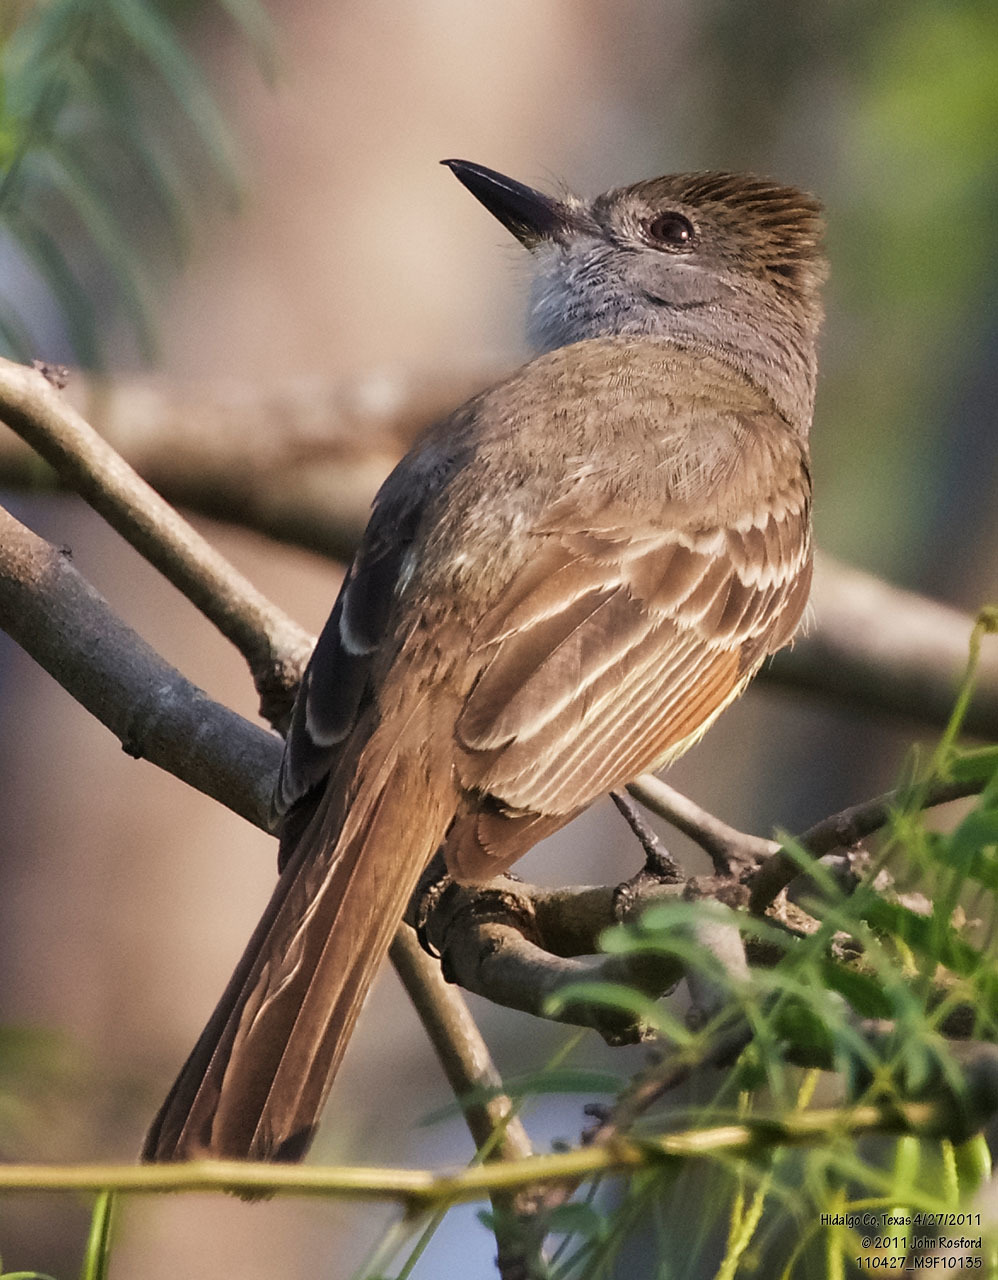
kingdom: Animalia
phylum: Chordata
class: Aves
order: Passeriformes
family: Tyrannidae
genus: Myiarchus
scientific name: Myiarchus tyrannulus
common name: Brown-crested flycatcher
